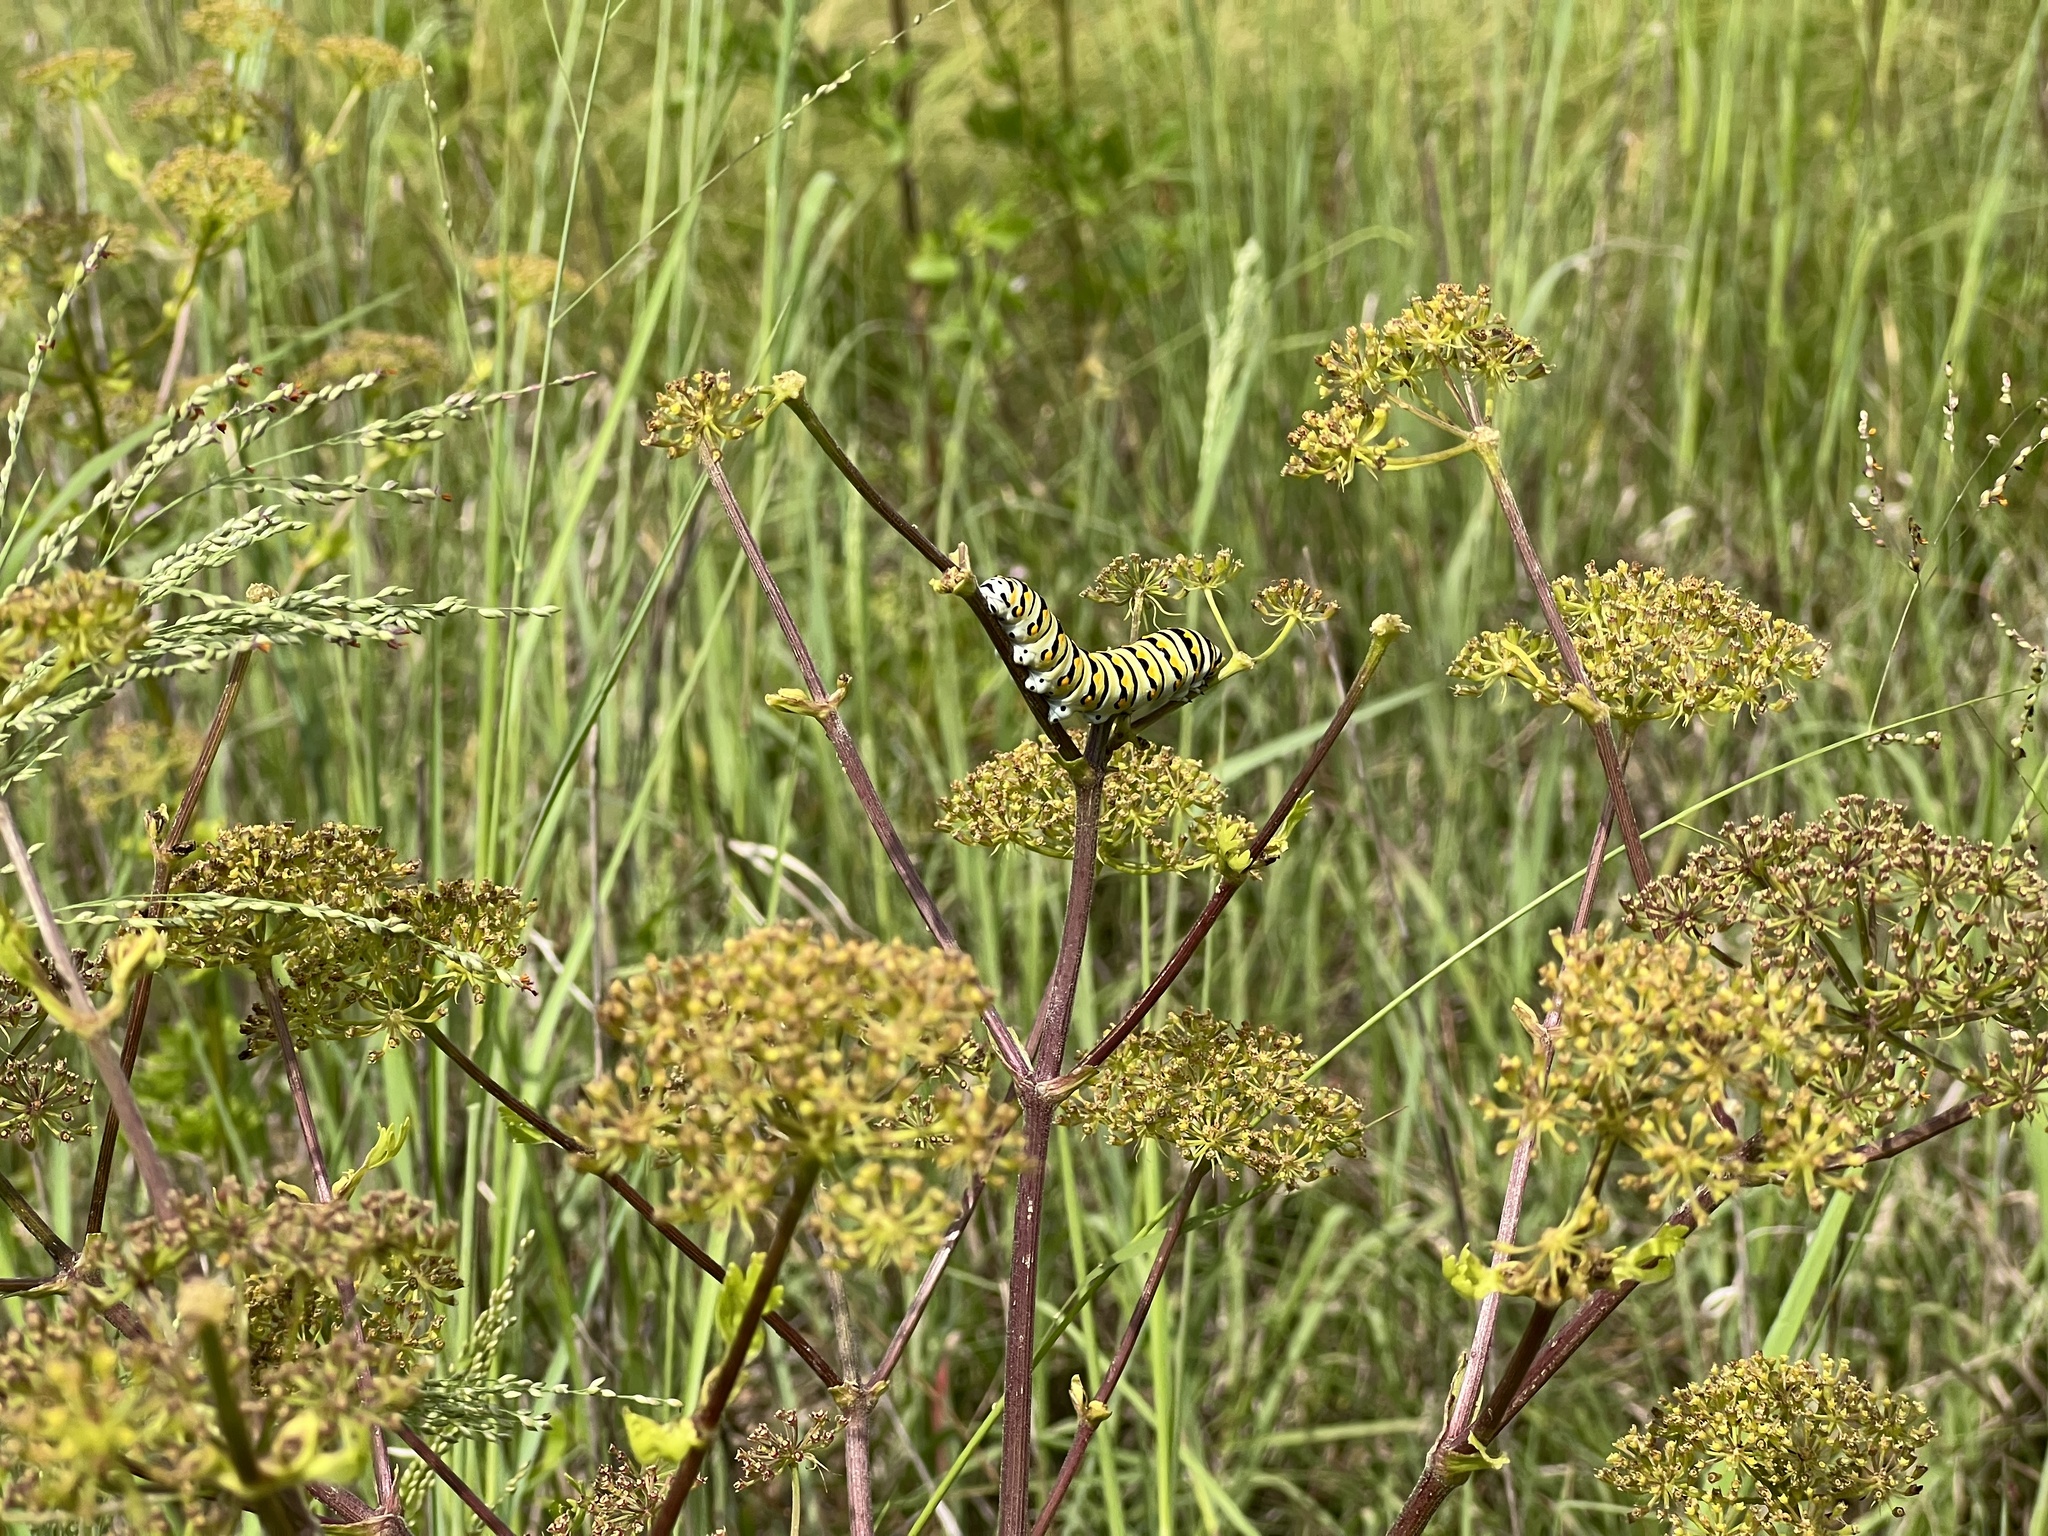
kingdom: Animalia
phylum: Arthropoda
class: Insecta
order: Lepidoptera
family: Papilionidae
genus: Papilio
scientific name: Papilio polyxenes
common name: Black swallowtail
